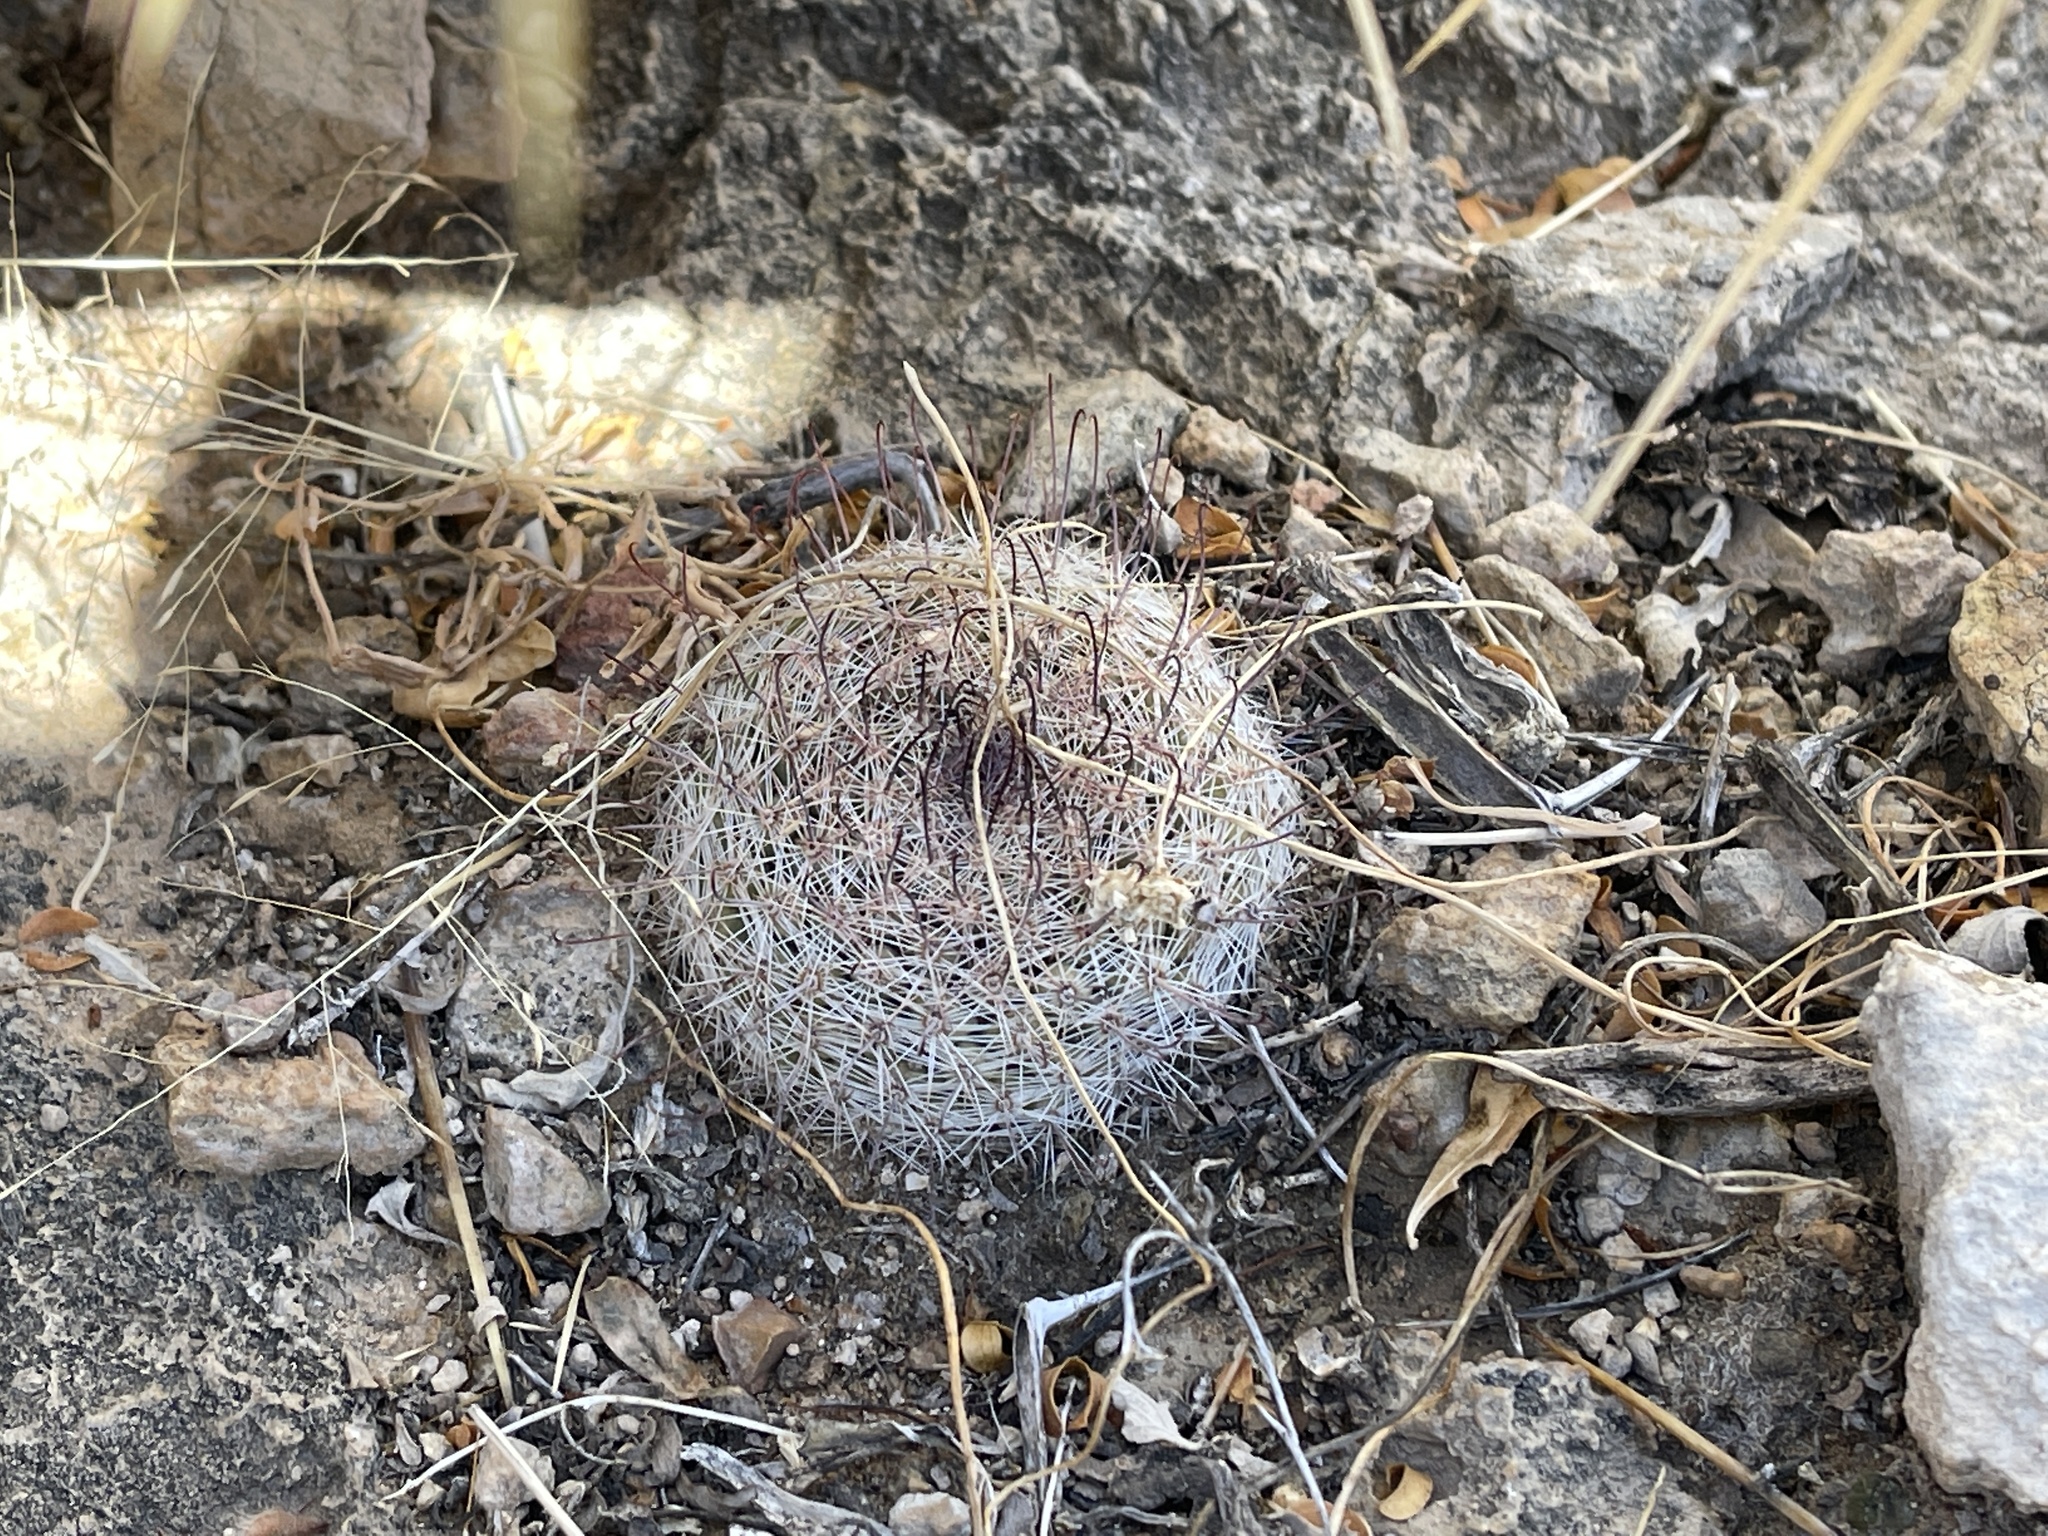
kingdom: Plantae
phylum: Tracheophyta
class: Magnoliopsida
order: Caryophyllales
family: Cactaceae
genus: Cochemiea
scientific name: Cochemiea grahamii
